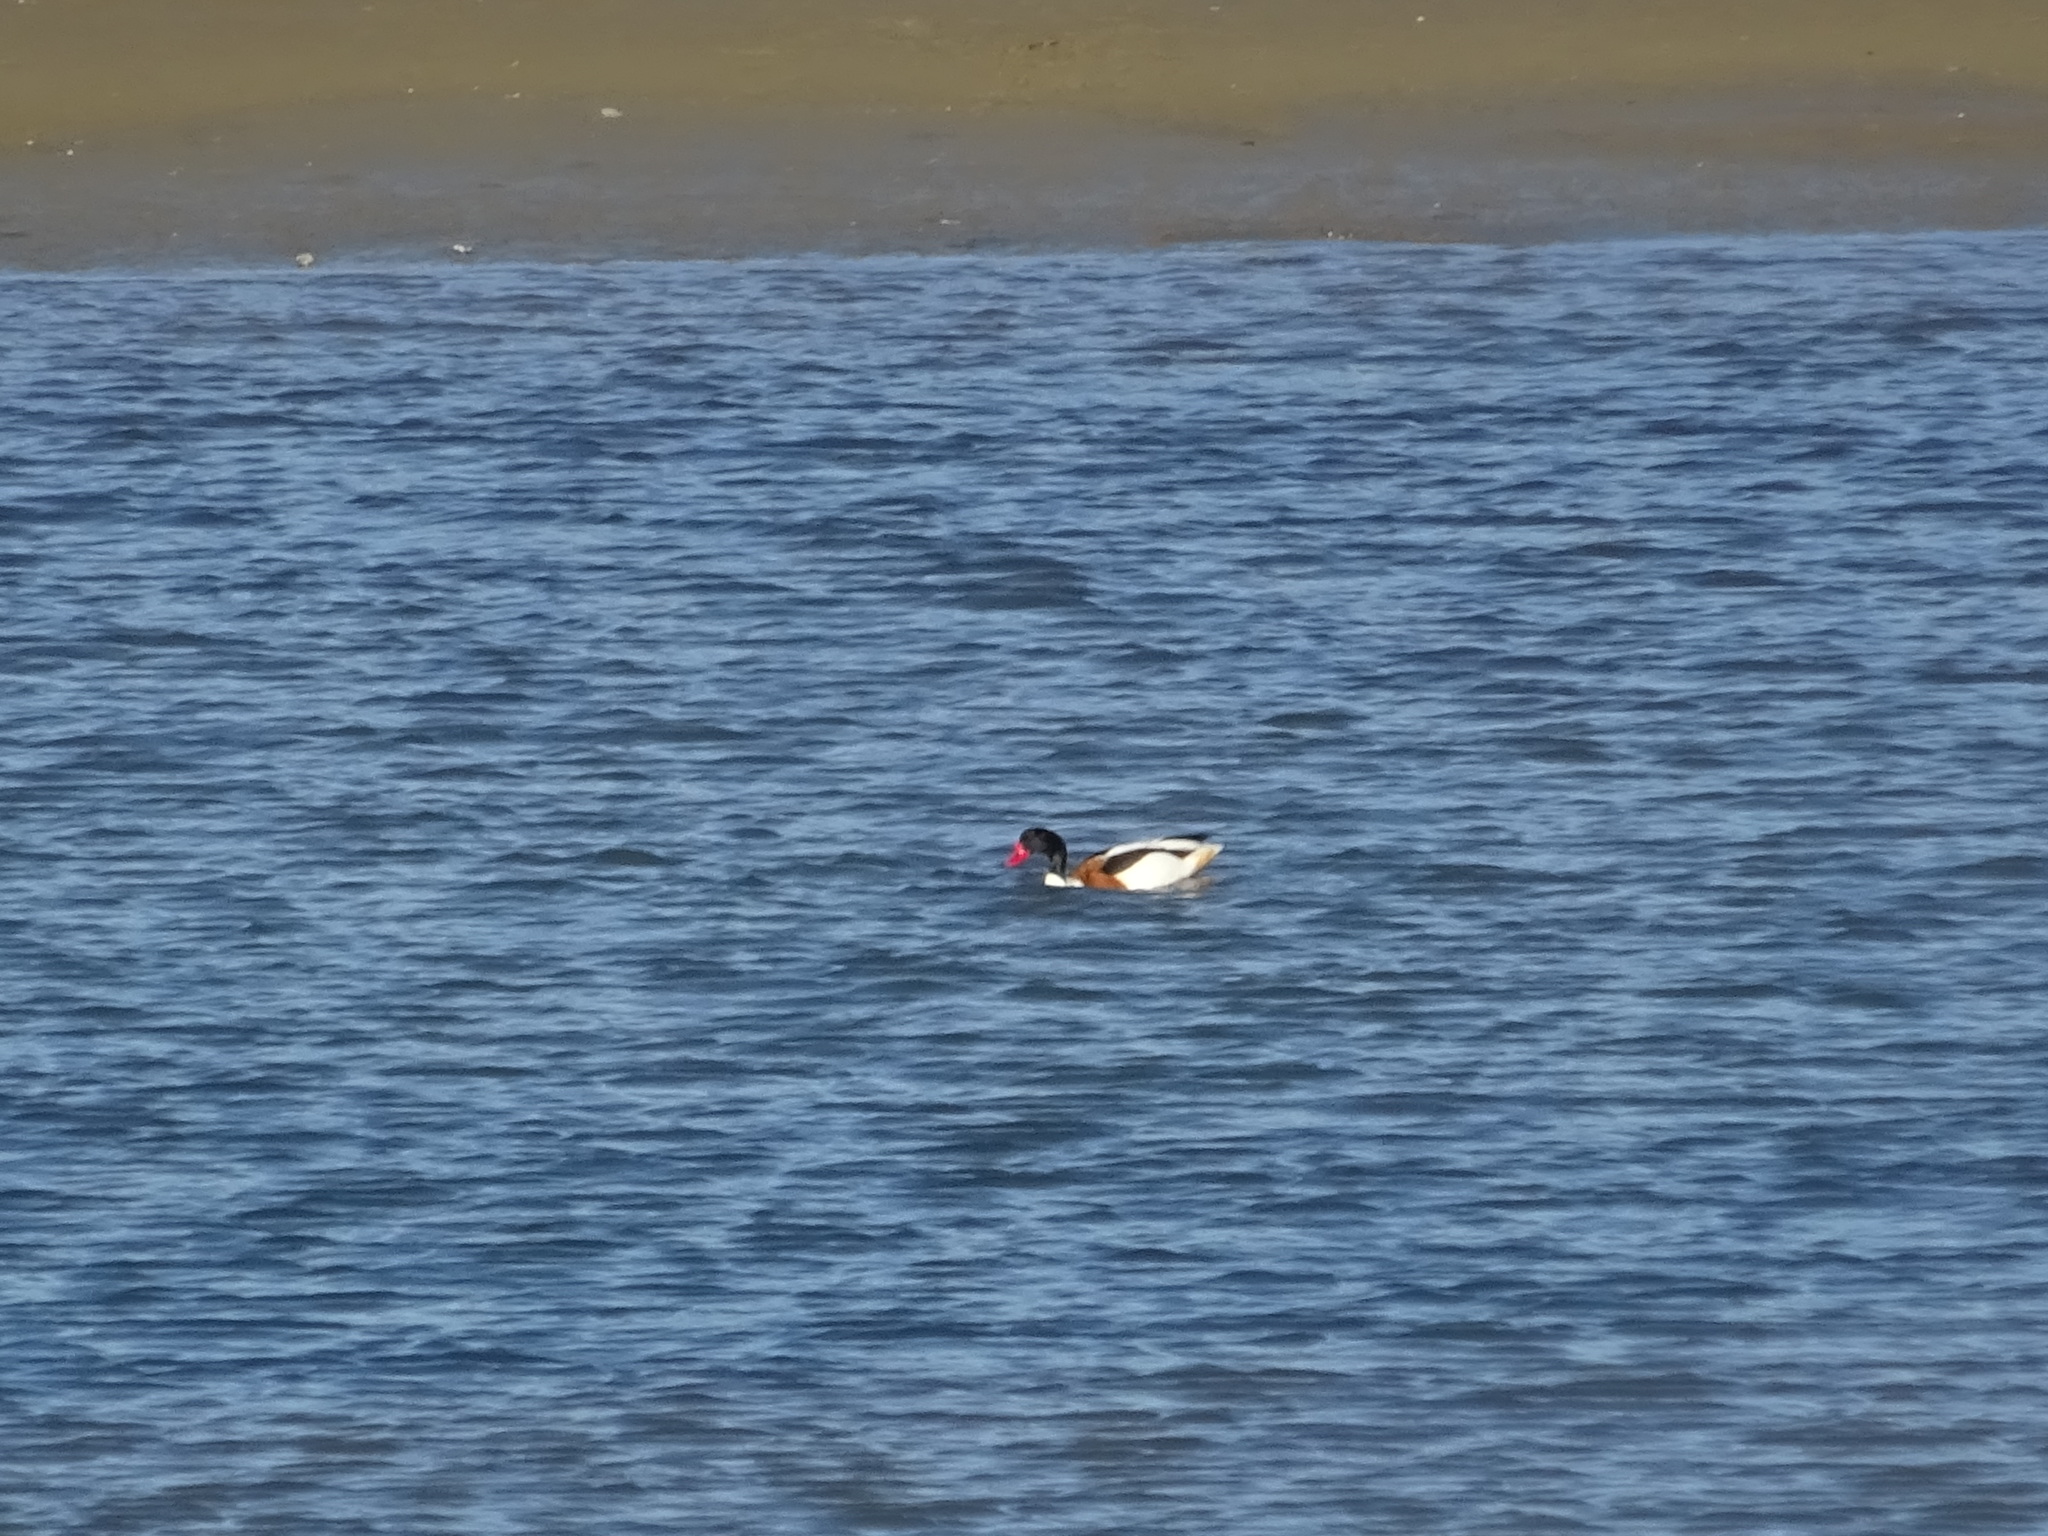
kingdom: Animalia
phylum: Chordata
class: Aves
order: Anseriformes
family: Anatidae
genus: Tadorna
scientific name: Tadorna tadorna
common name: Common shelduck
